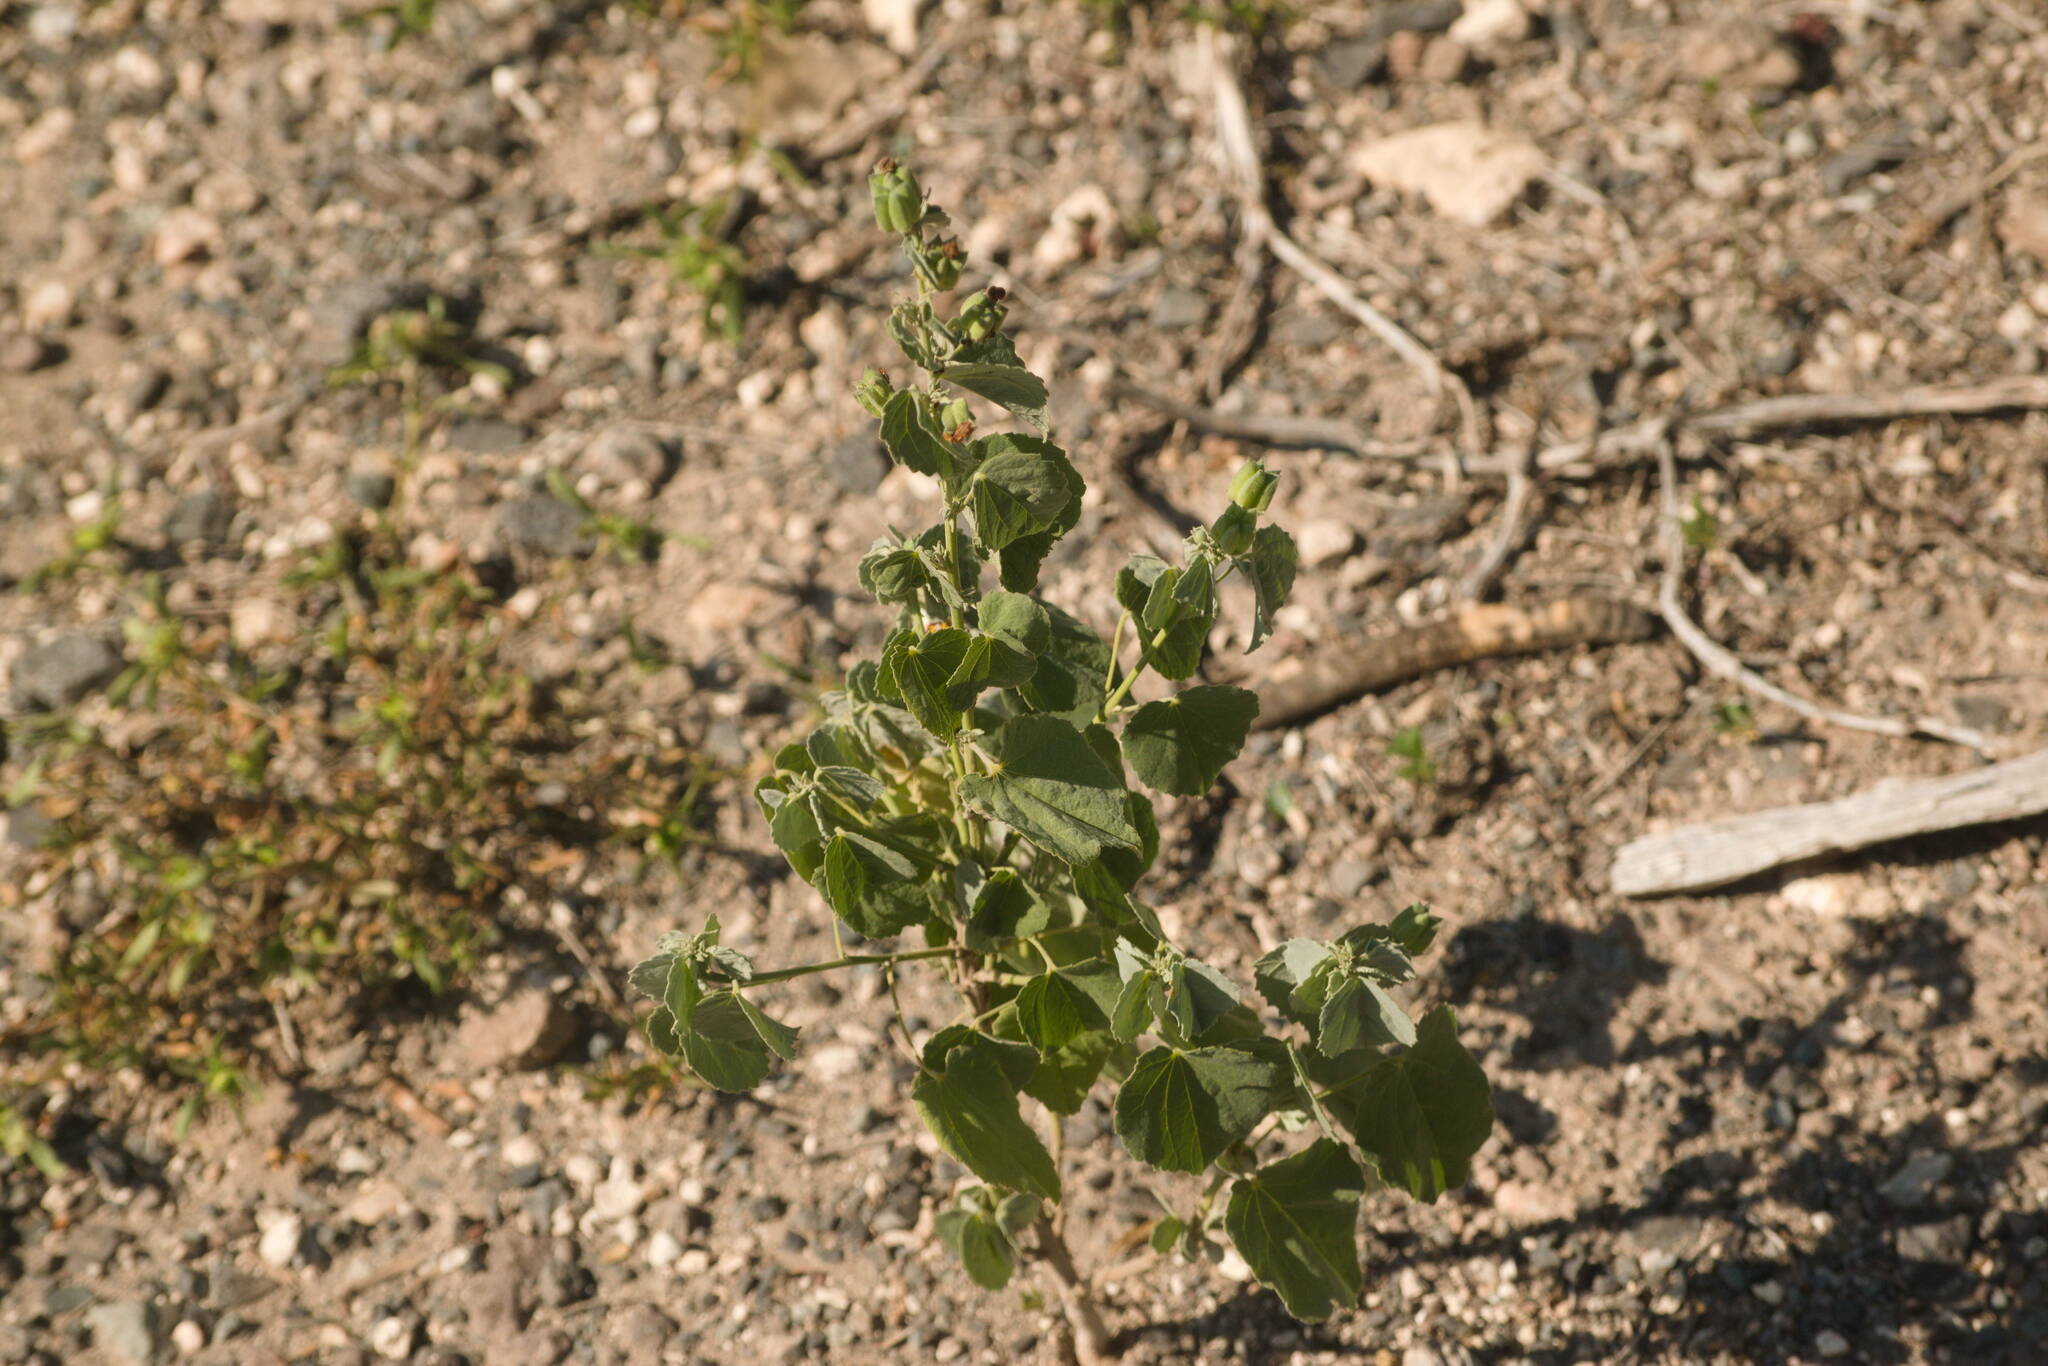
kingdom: Plantae
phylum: Tracheophyta
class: Magnoliopsida
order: Malvales
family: Malvaceae
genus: Abutilon
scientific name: Abutilon incanum
